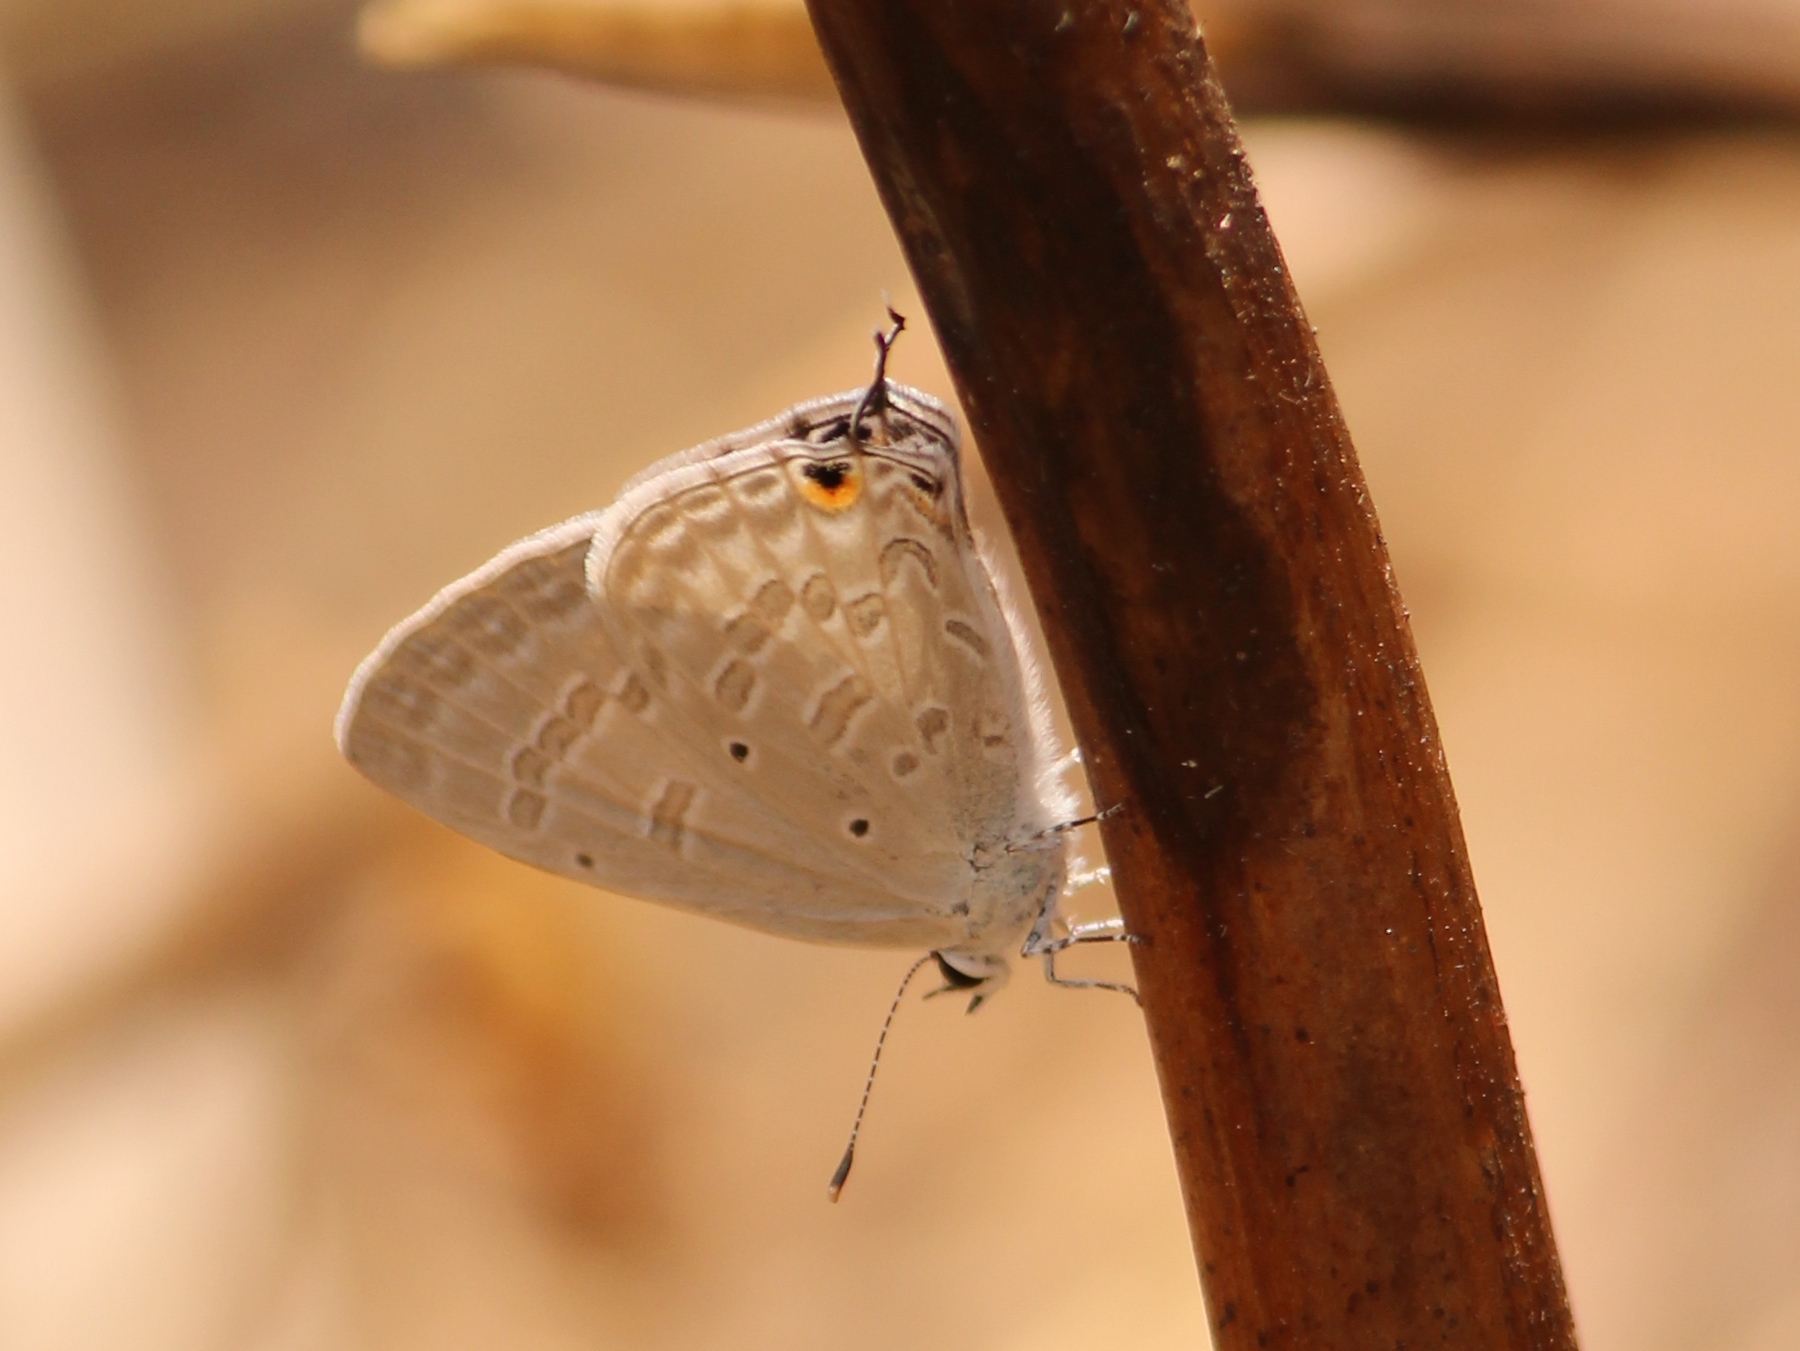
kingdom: Animalia
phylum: Arthropoda
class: Insecta
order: Lepidoptera
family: Lycaenidae
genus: Catochrysops
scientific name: Catochrysops strabo
